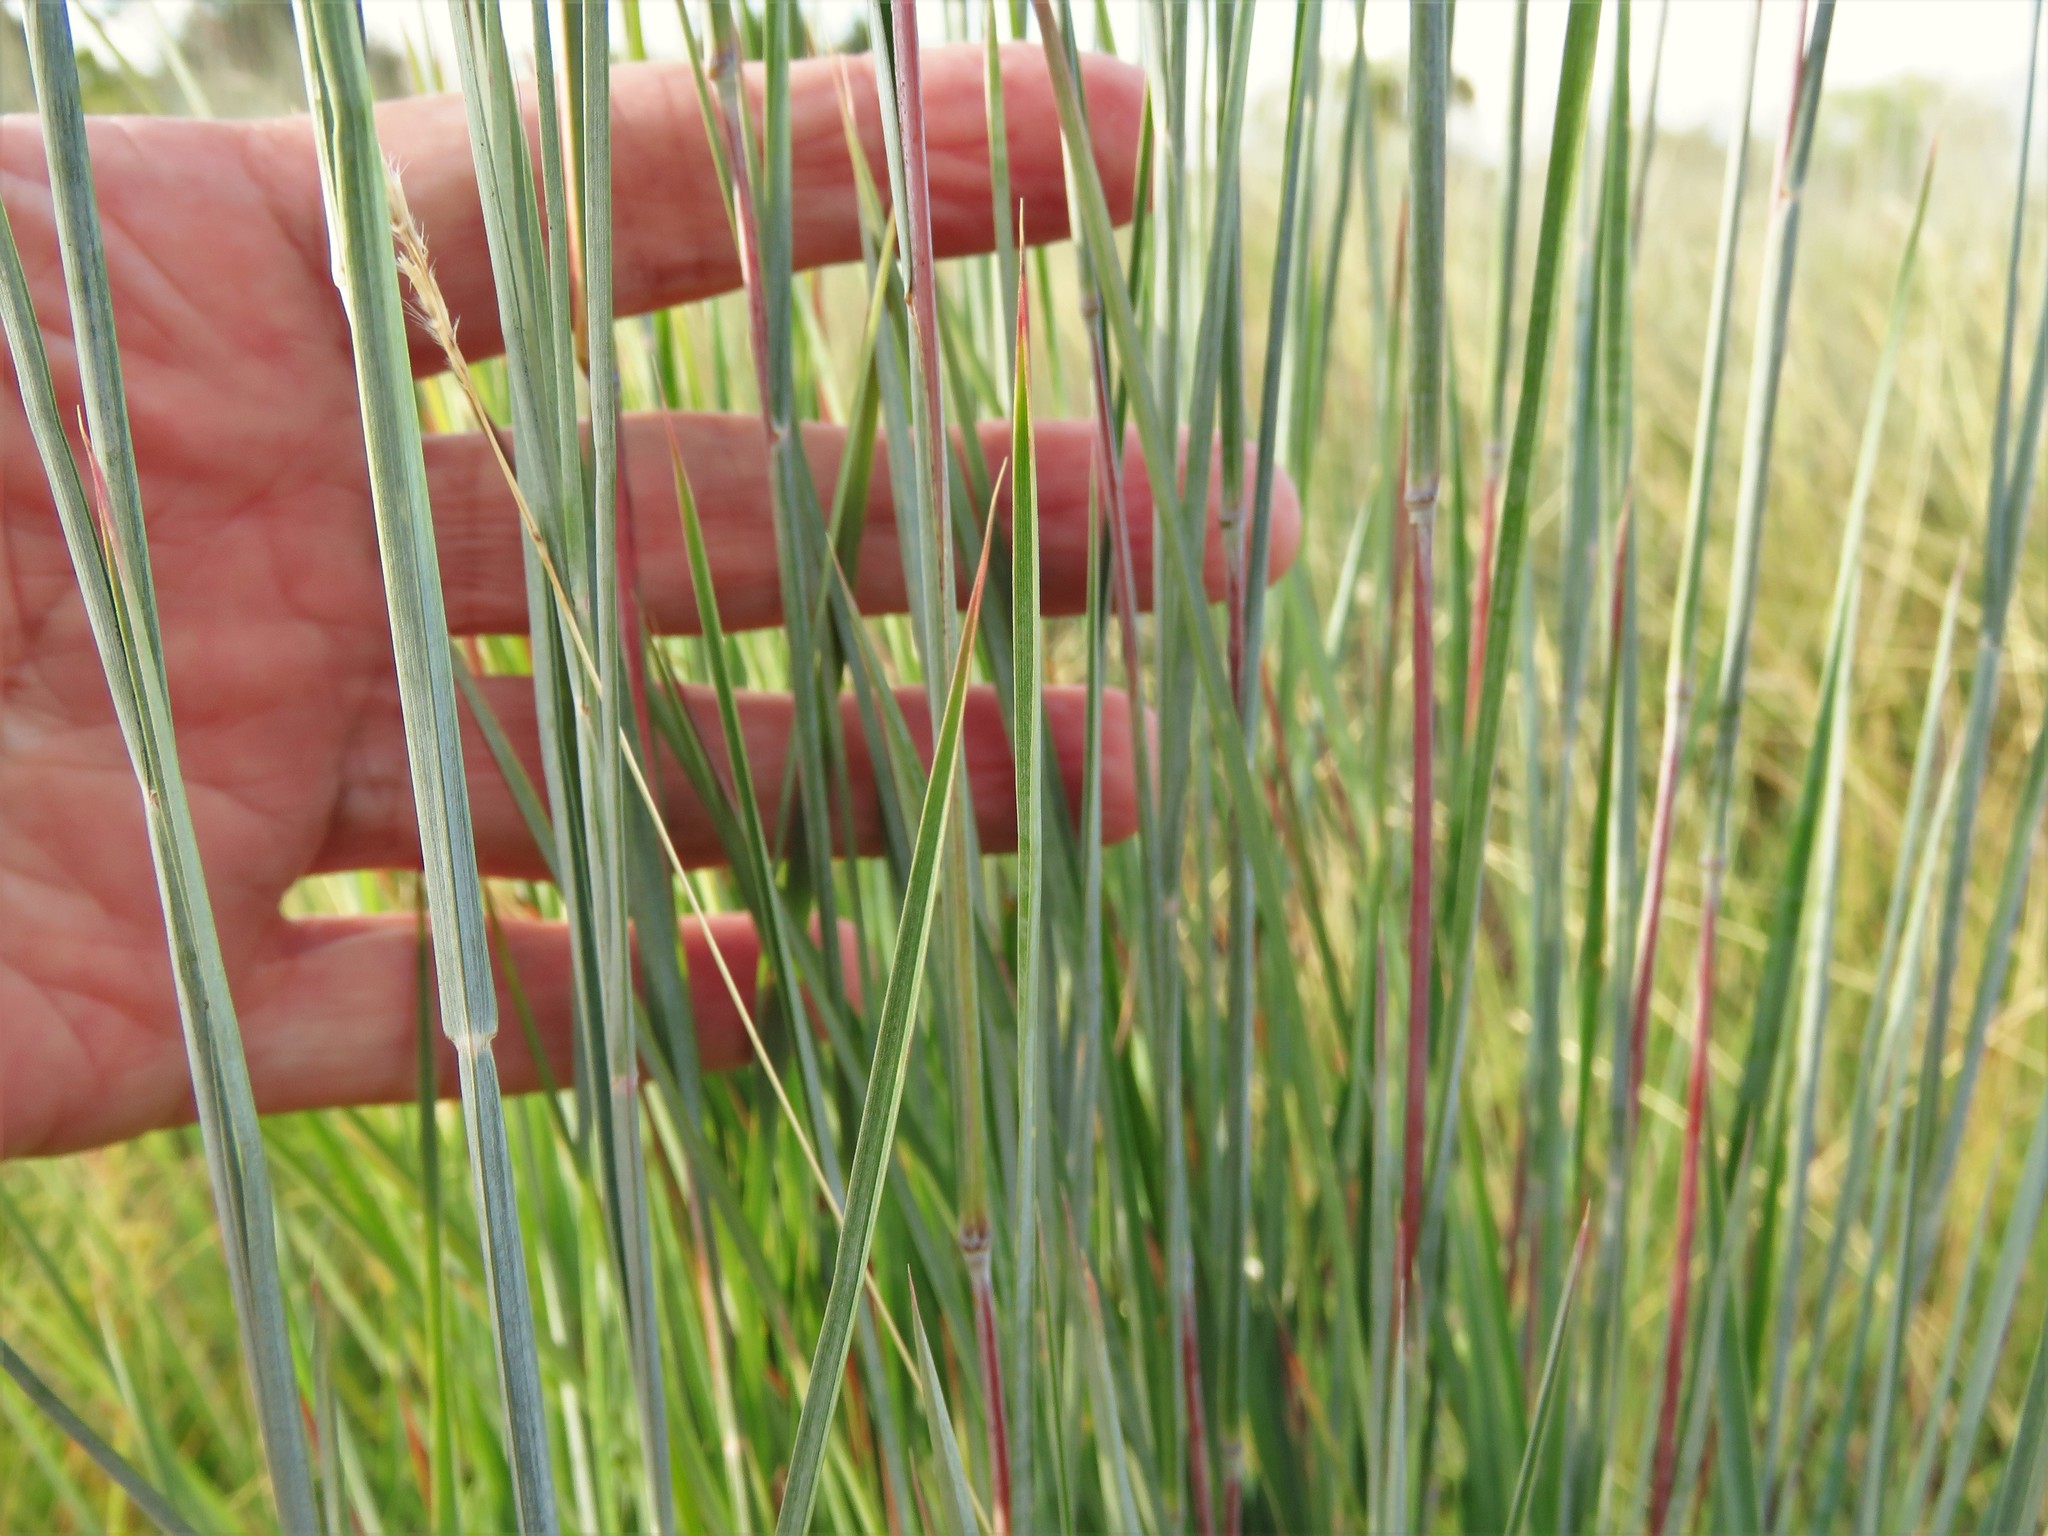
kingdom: Plantae
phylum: Tracheophyta
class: Liliopsida
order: Poales
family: Poaceae
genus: Schizachyrium
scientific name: Schizachyrium scoparium
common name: Little bluestem
